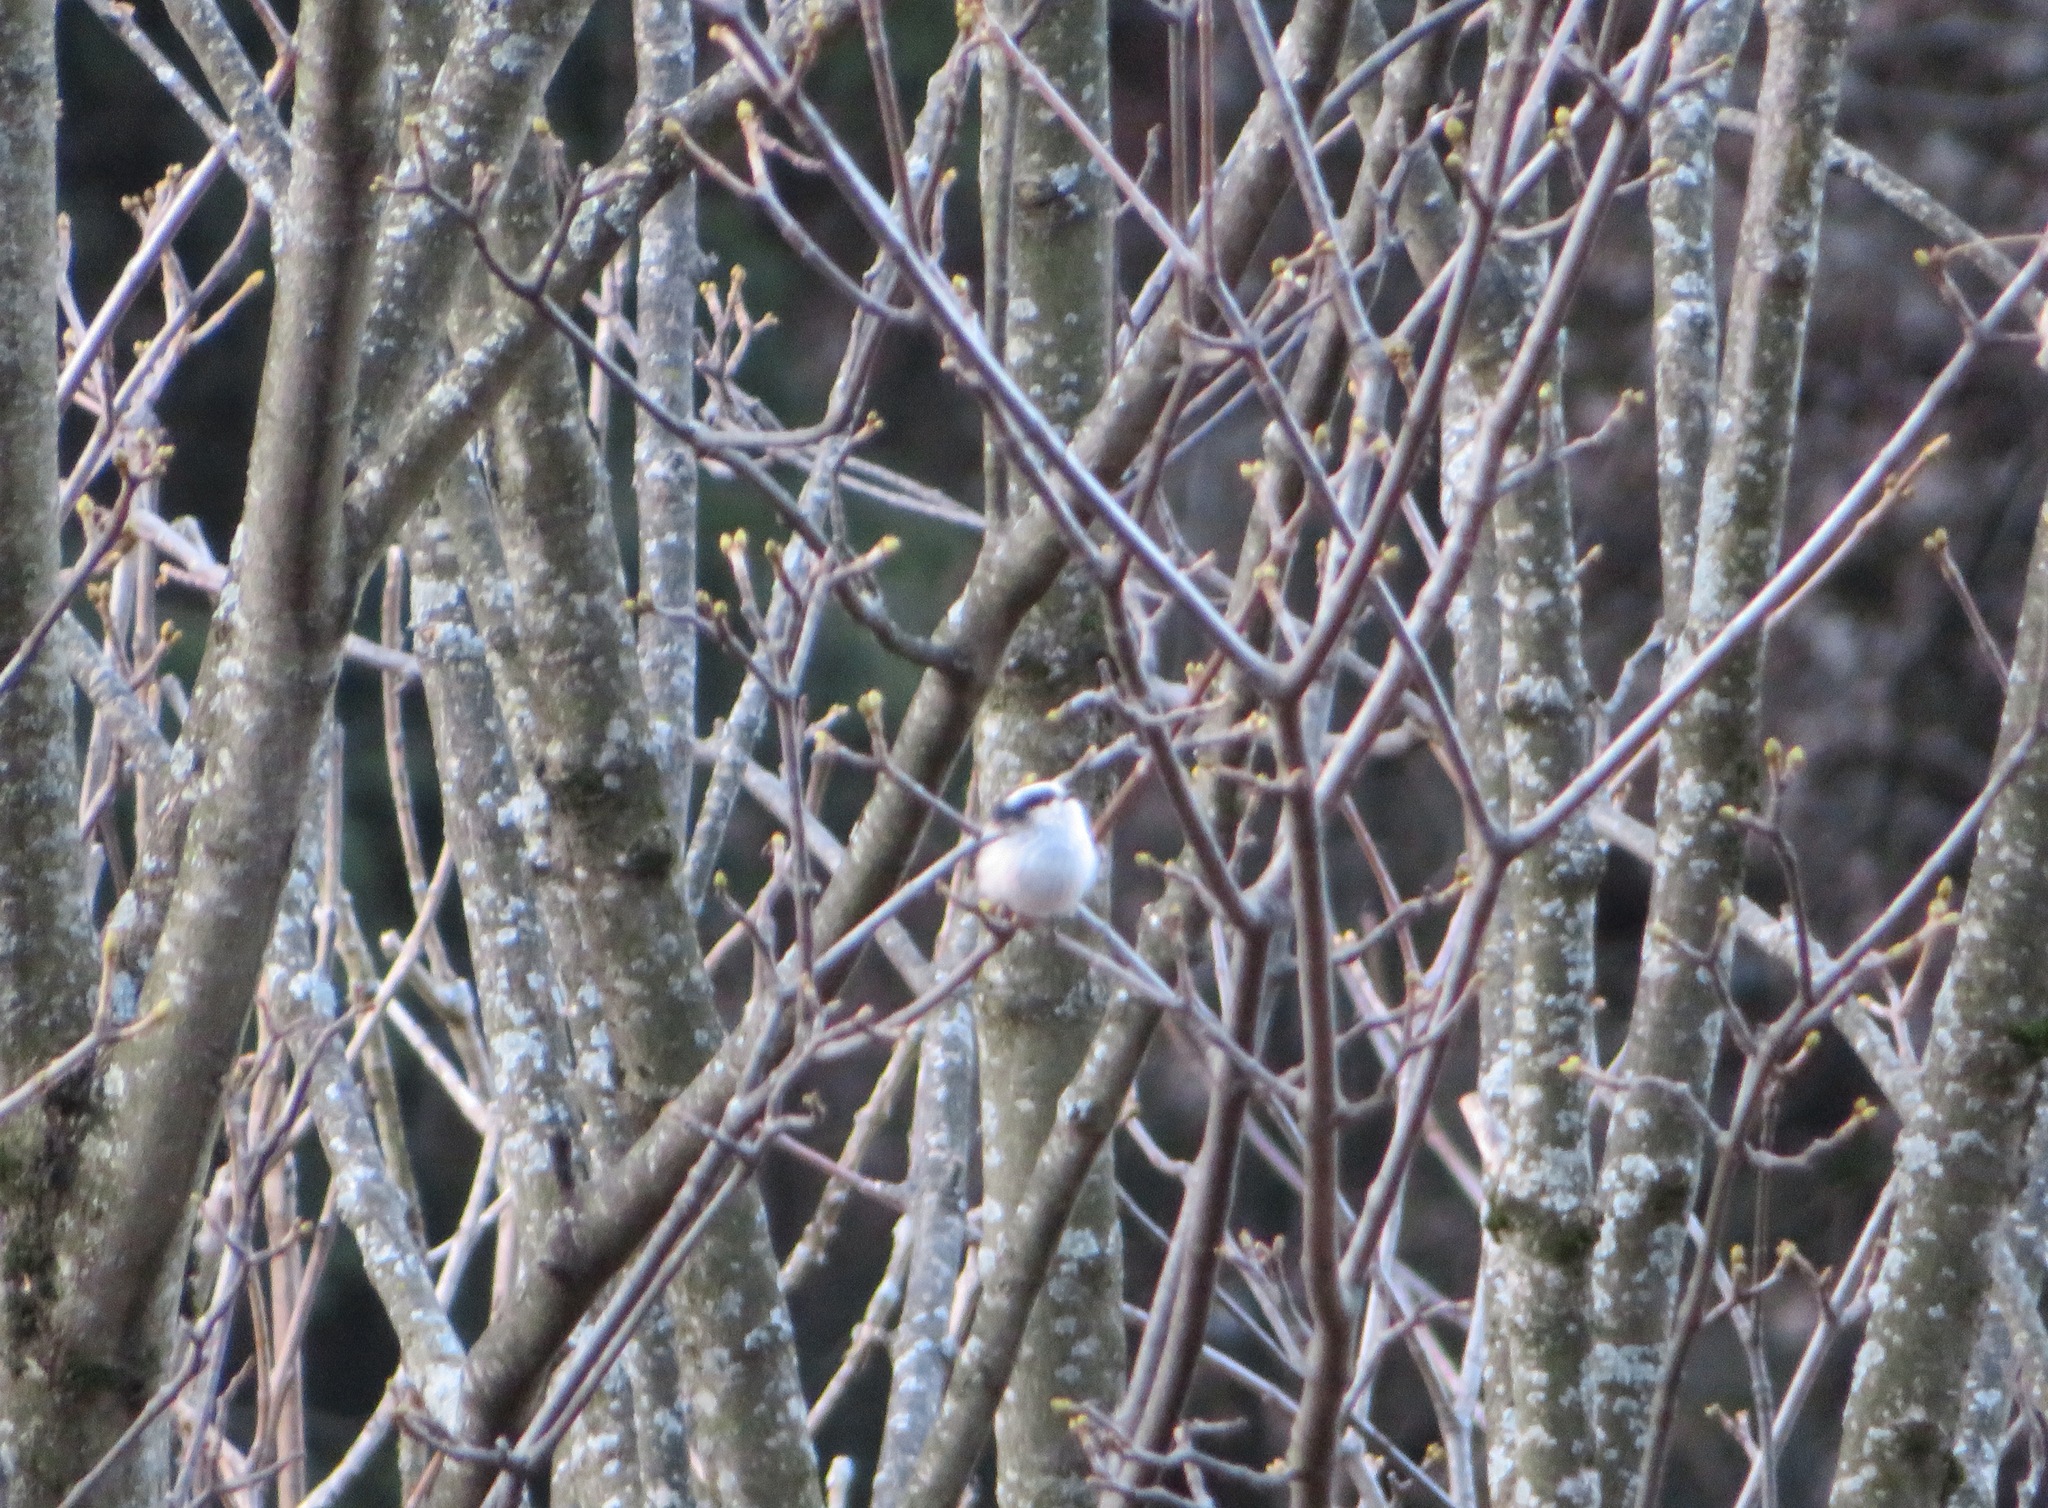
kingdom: Animalia
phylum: Chordata
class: Aves
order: Passeriformes
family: Aegithalidae
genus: Aegithalos
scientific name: Aegithalos caudatus
